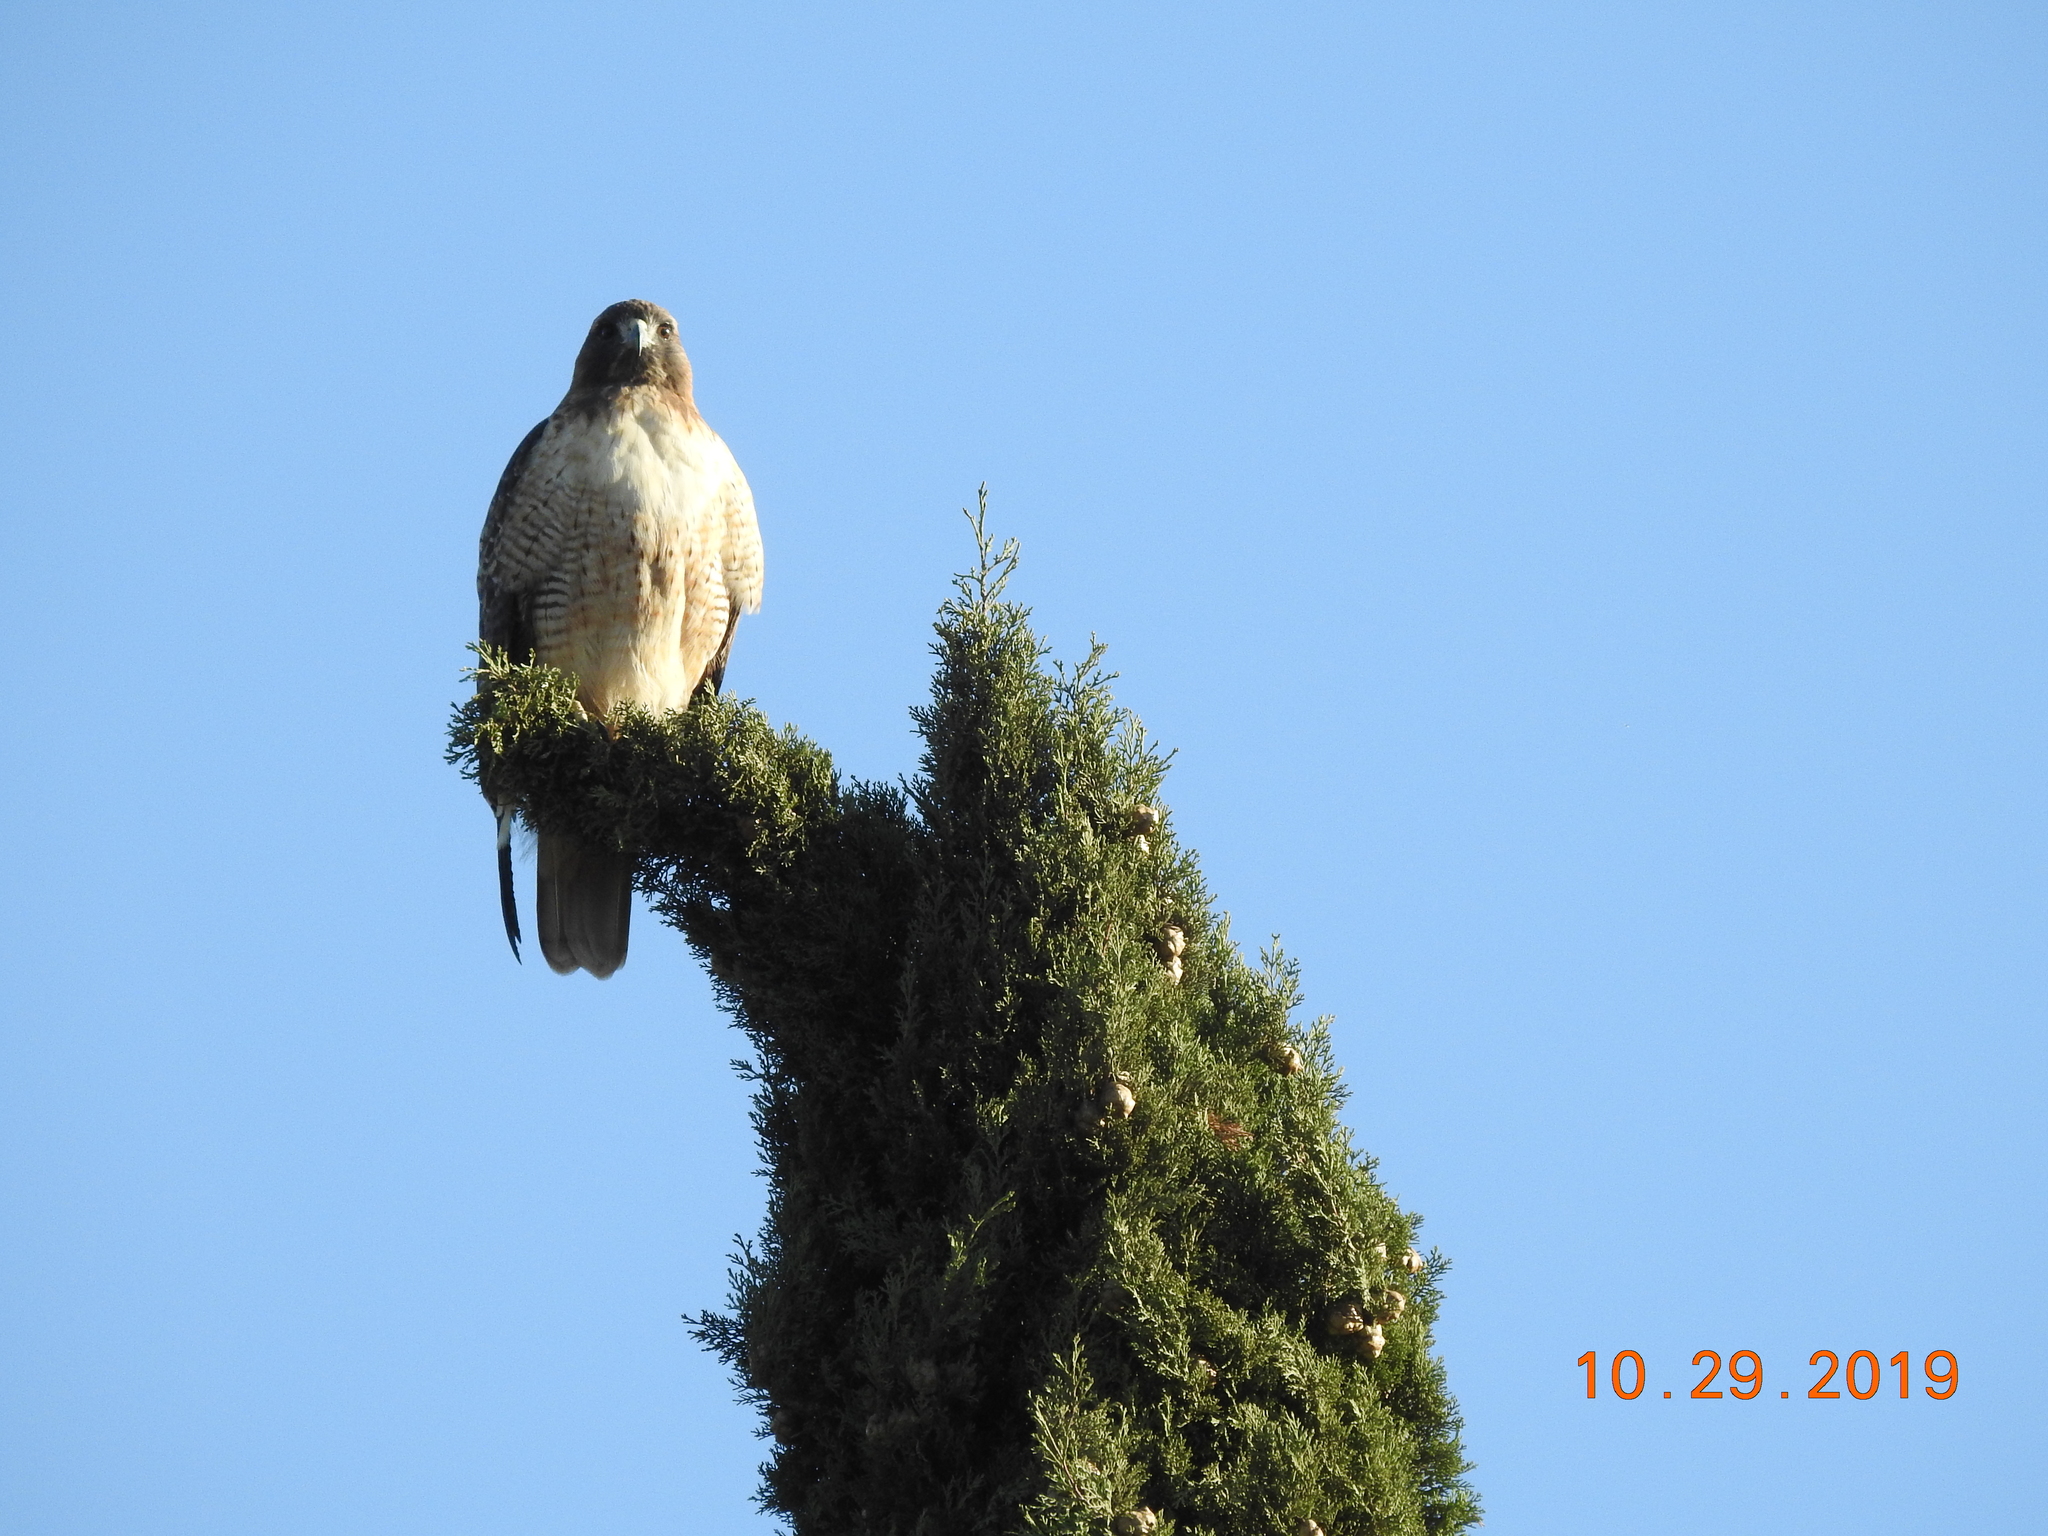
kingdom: Animalia
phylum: Chordata
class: Aves
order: Accipitriformes
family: Accipitridae
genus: Buteo
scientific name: Buteo jamaicensis
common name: Red-tailed hawk
